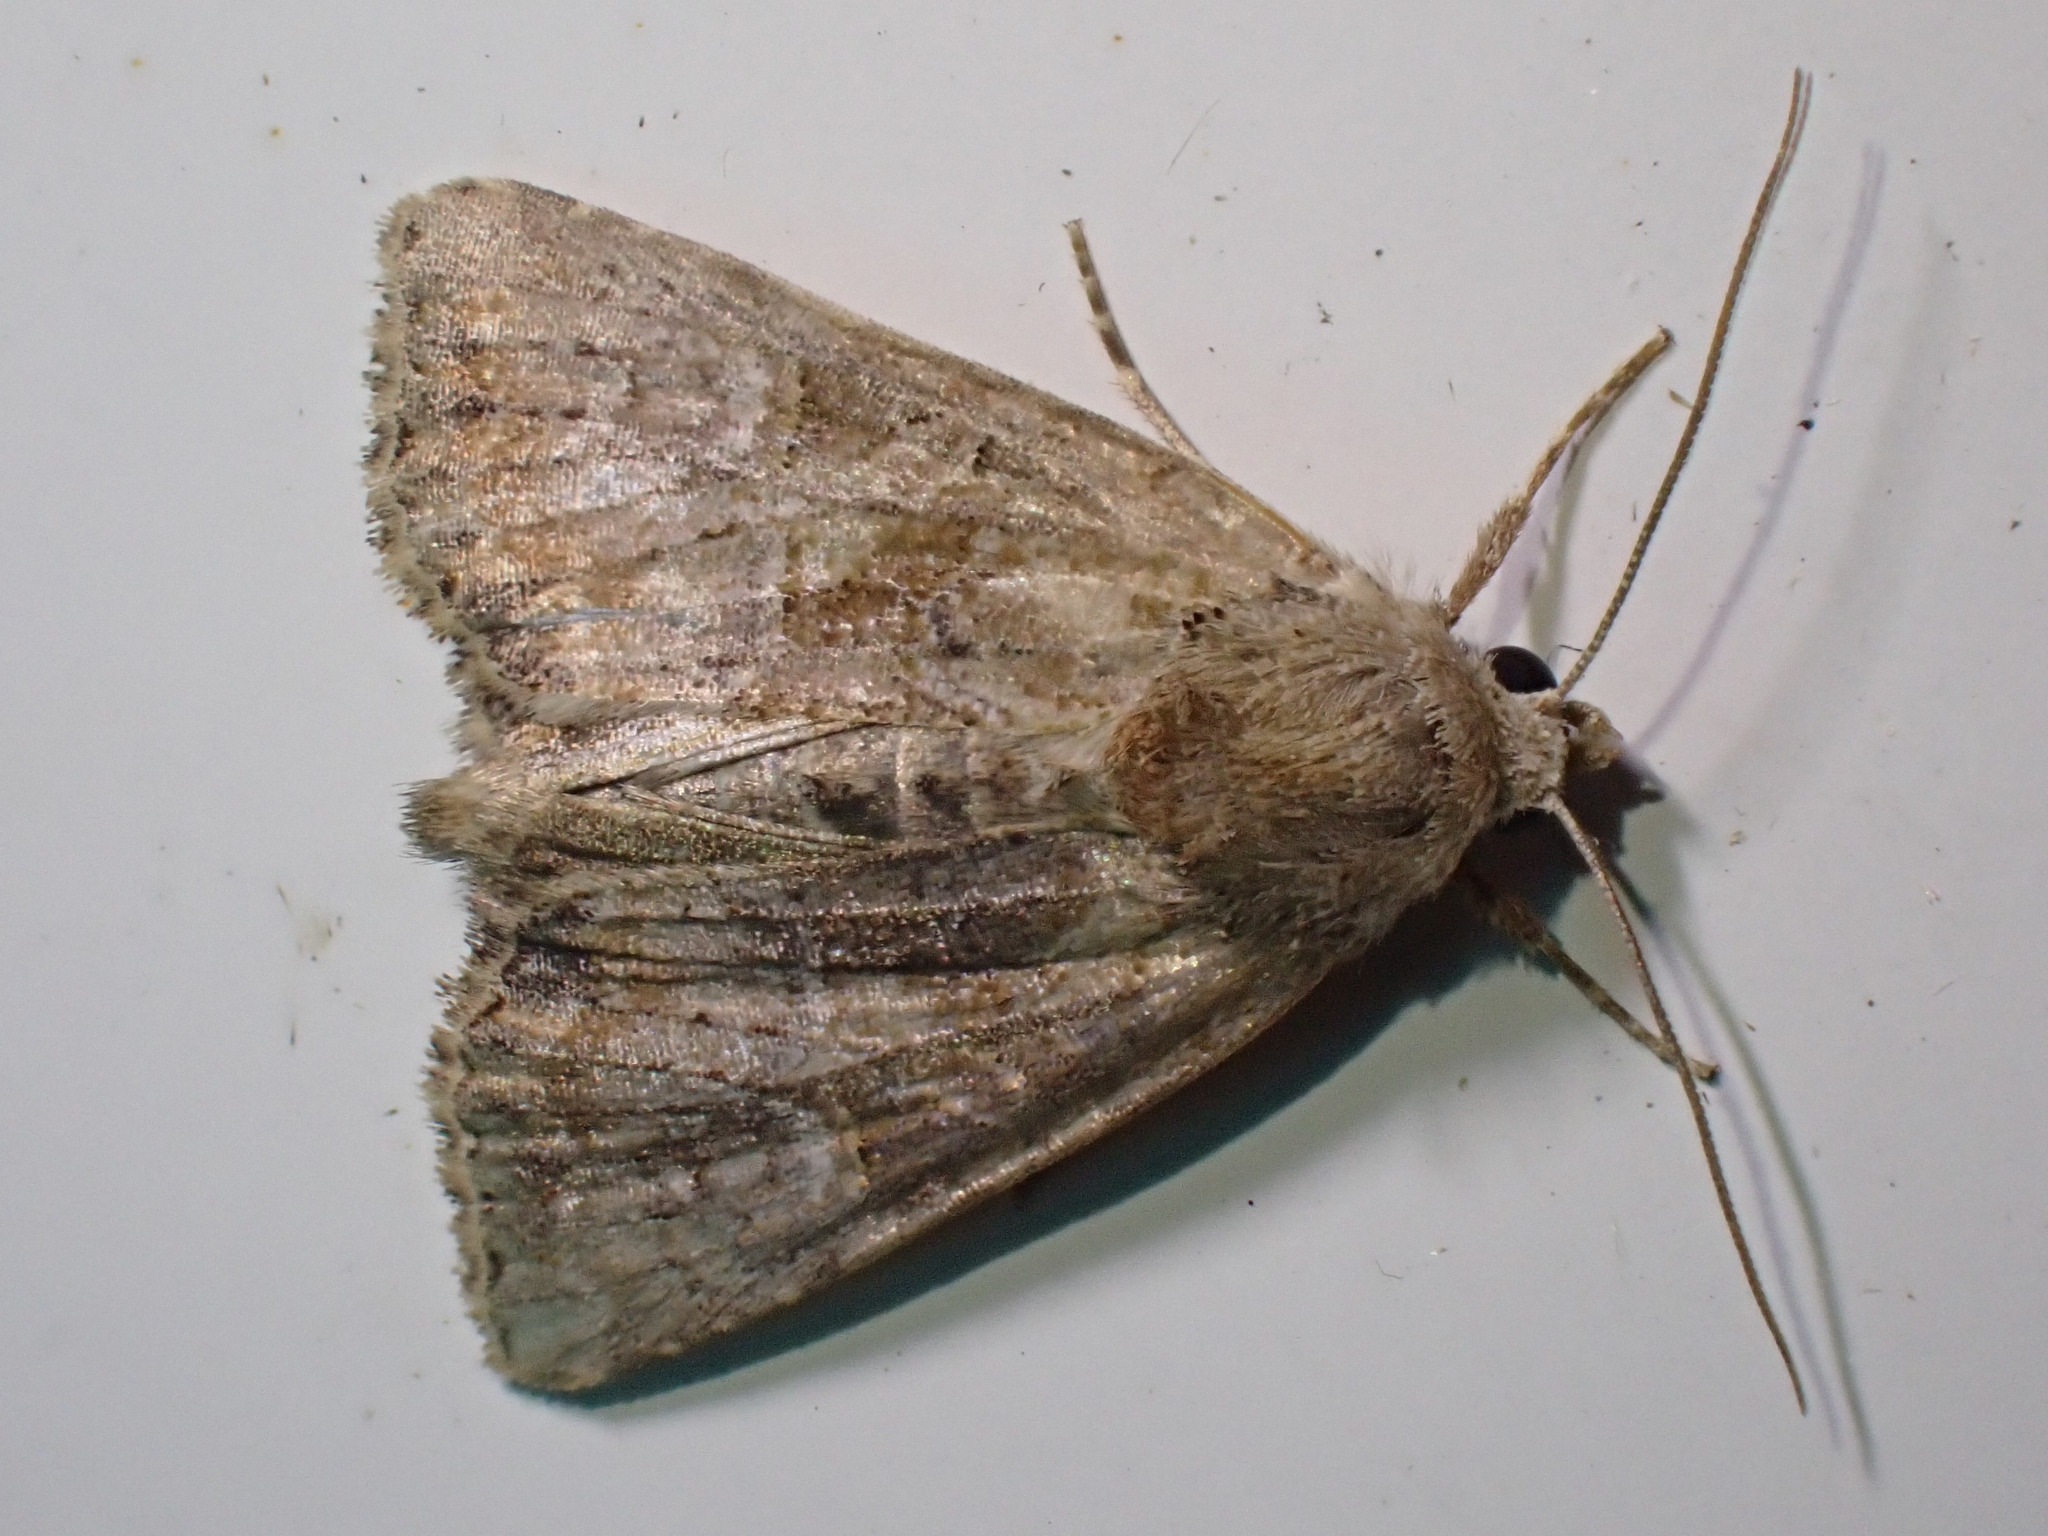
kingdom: Animalia
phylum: Arthropoda
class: Insecta
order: Lepidoptera
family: Noctuidae
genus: Mesoligia
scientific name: Mesoligia furuncula
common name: Cloaked minor
